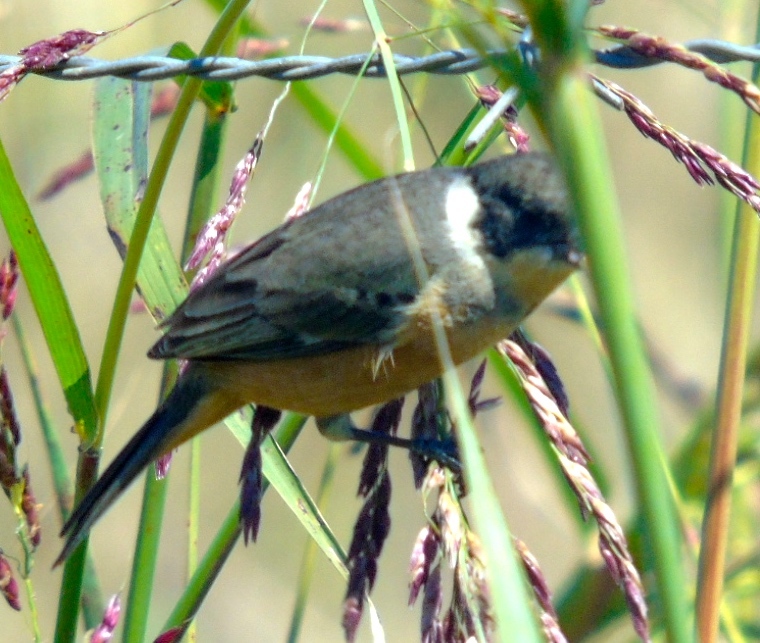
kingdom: Animalia
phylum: Chordata
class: Aves
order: Passeriformes
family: Thraupidae
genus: Sporophila
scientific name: Sporophila torqueola
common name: White-collared seedeater
